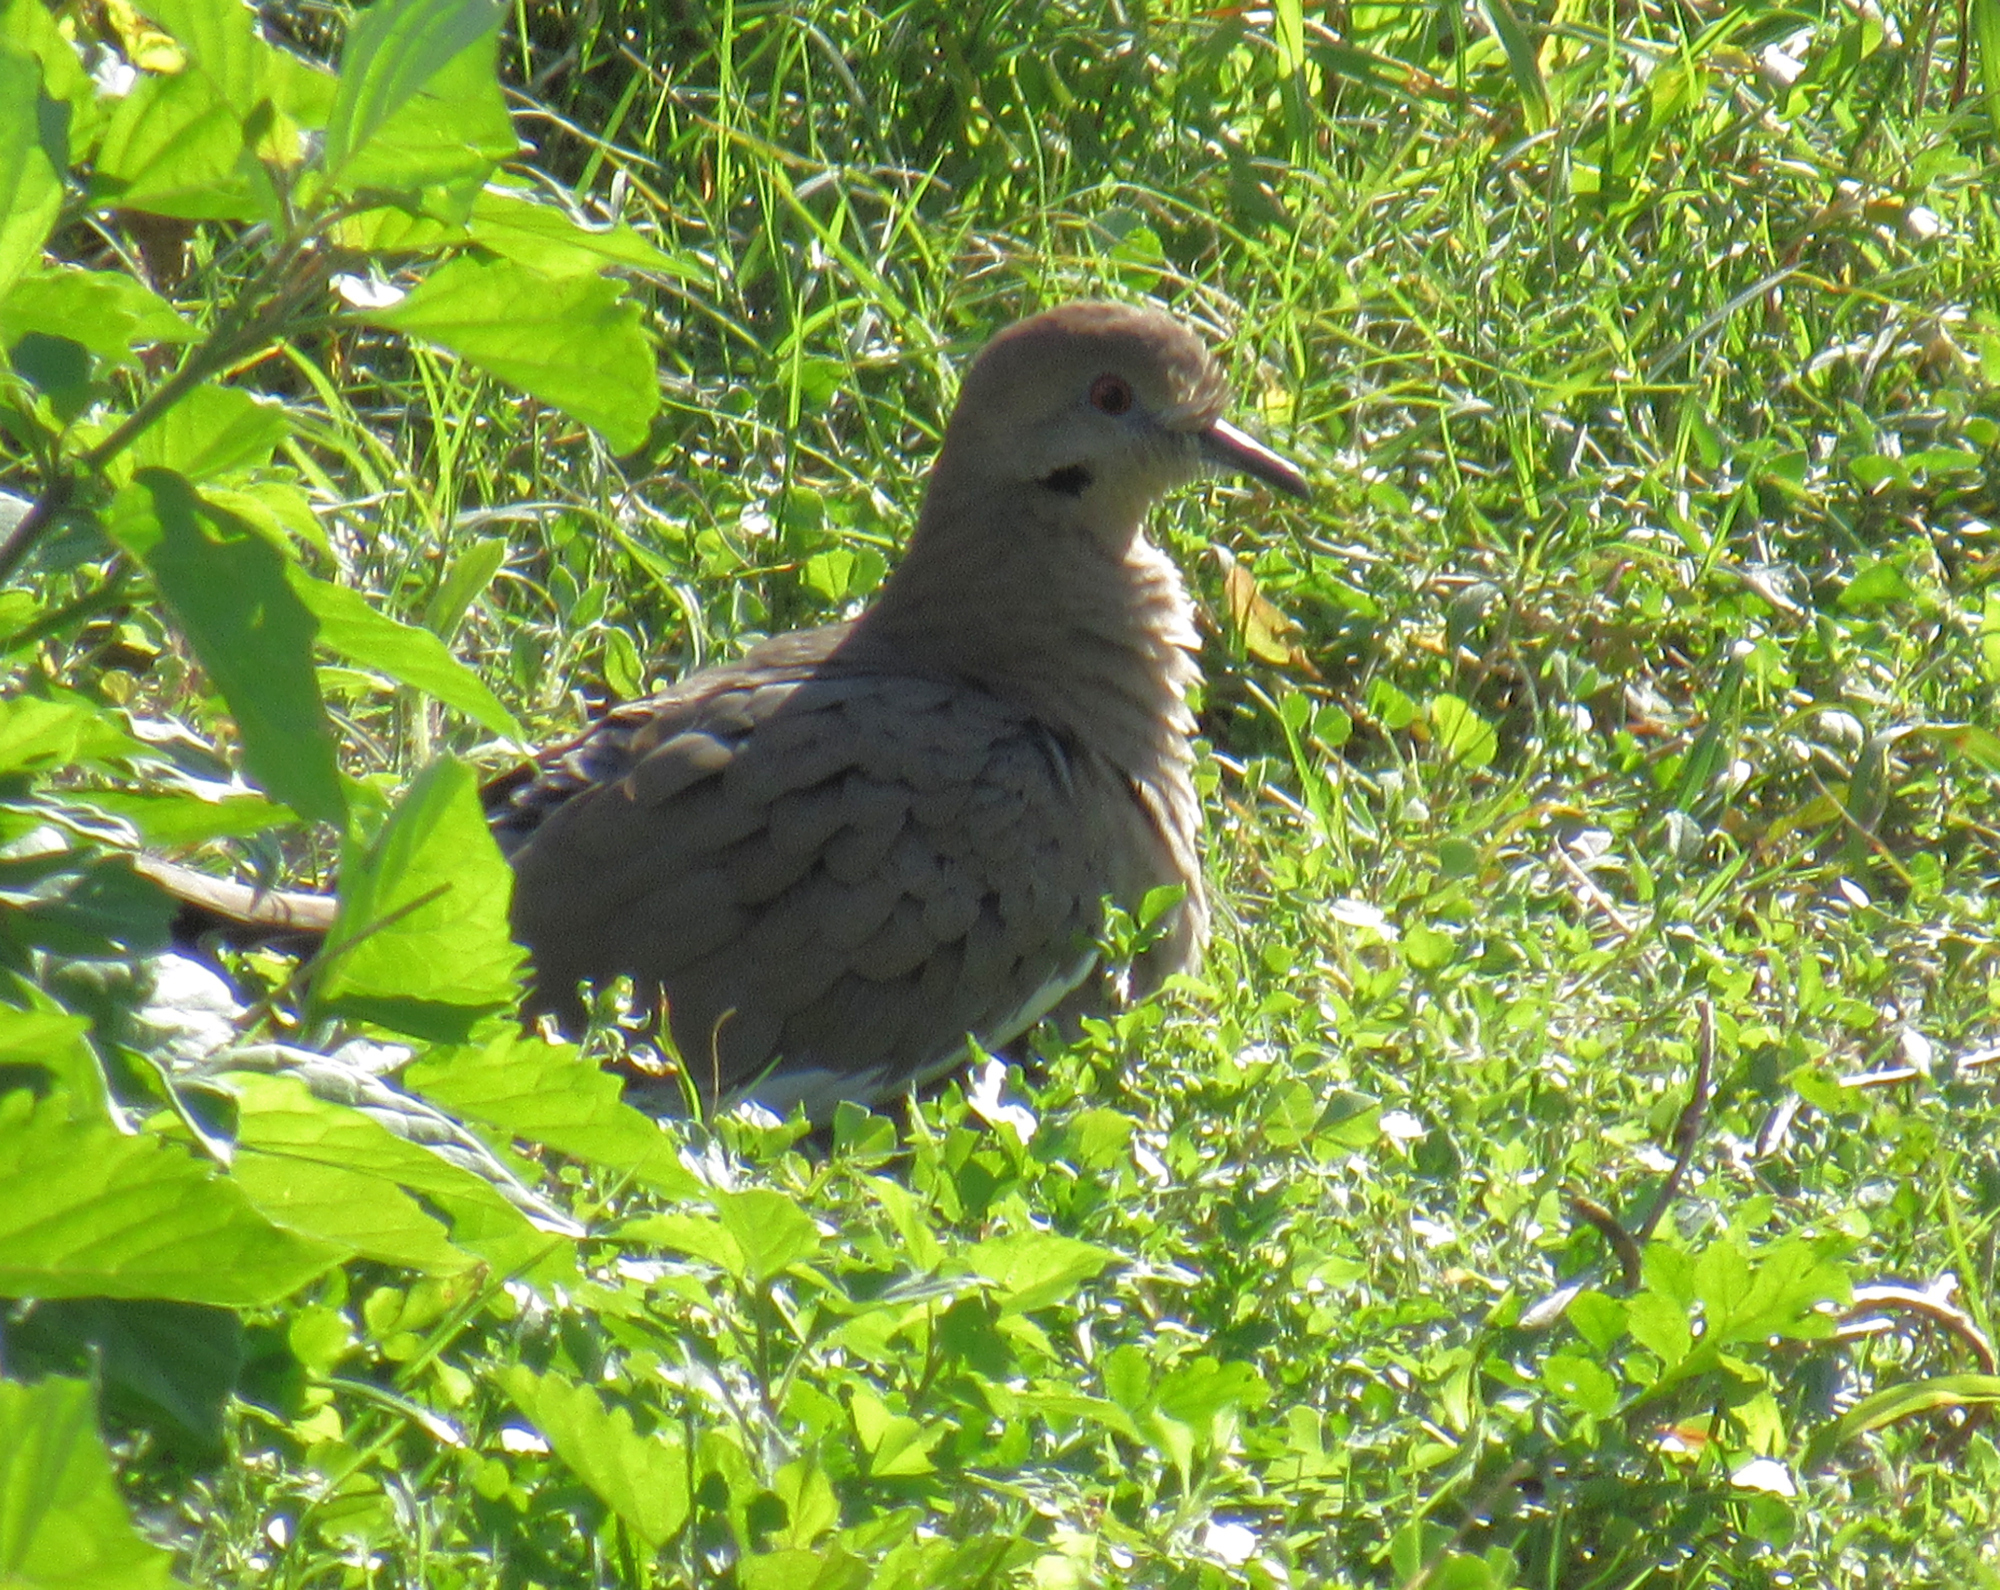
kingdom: Animalia
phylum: Chordata
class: Aves
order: Columbiformes
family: Columbidae
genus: Zenaida
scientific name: Zenaida asiatica
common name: White-winged dove
